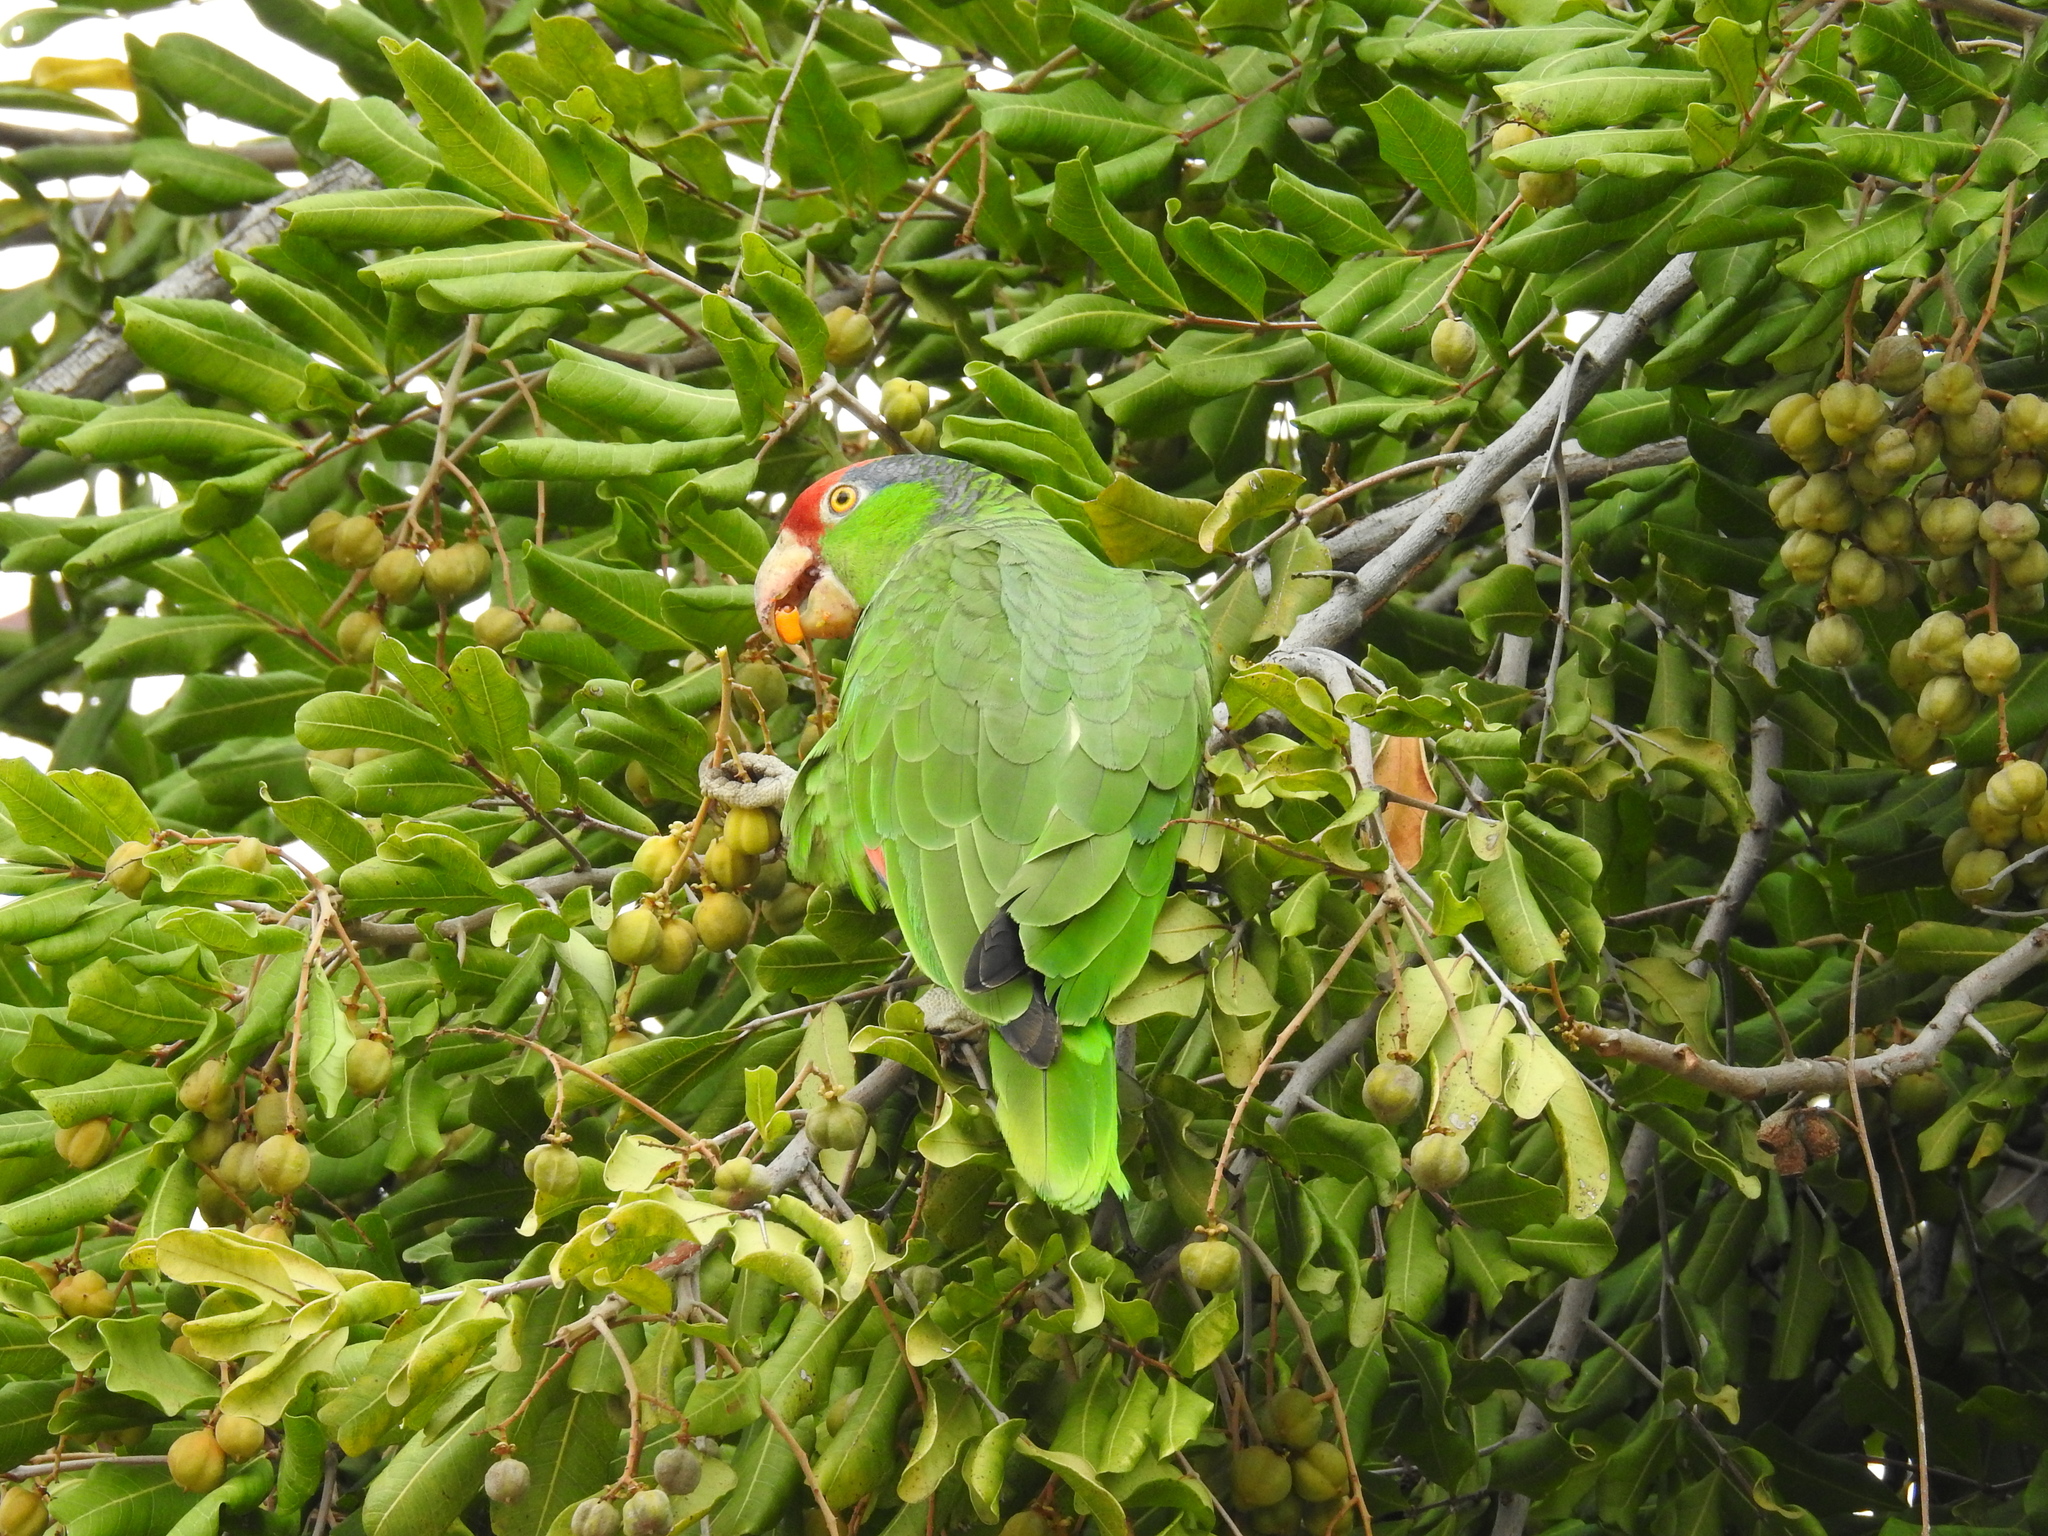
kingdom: Animalia
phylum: Chordata
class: Aves
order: Psittaciformes
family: Psittacidae
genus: Amazona
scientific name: Amazona viridigenalis
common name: Red-crowned amazon
